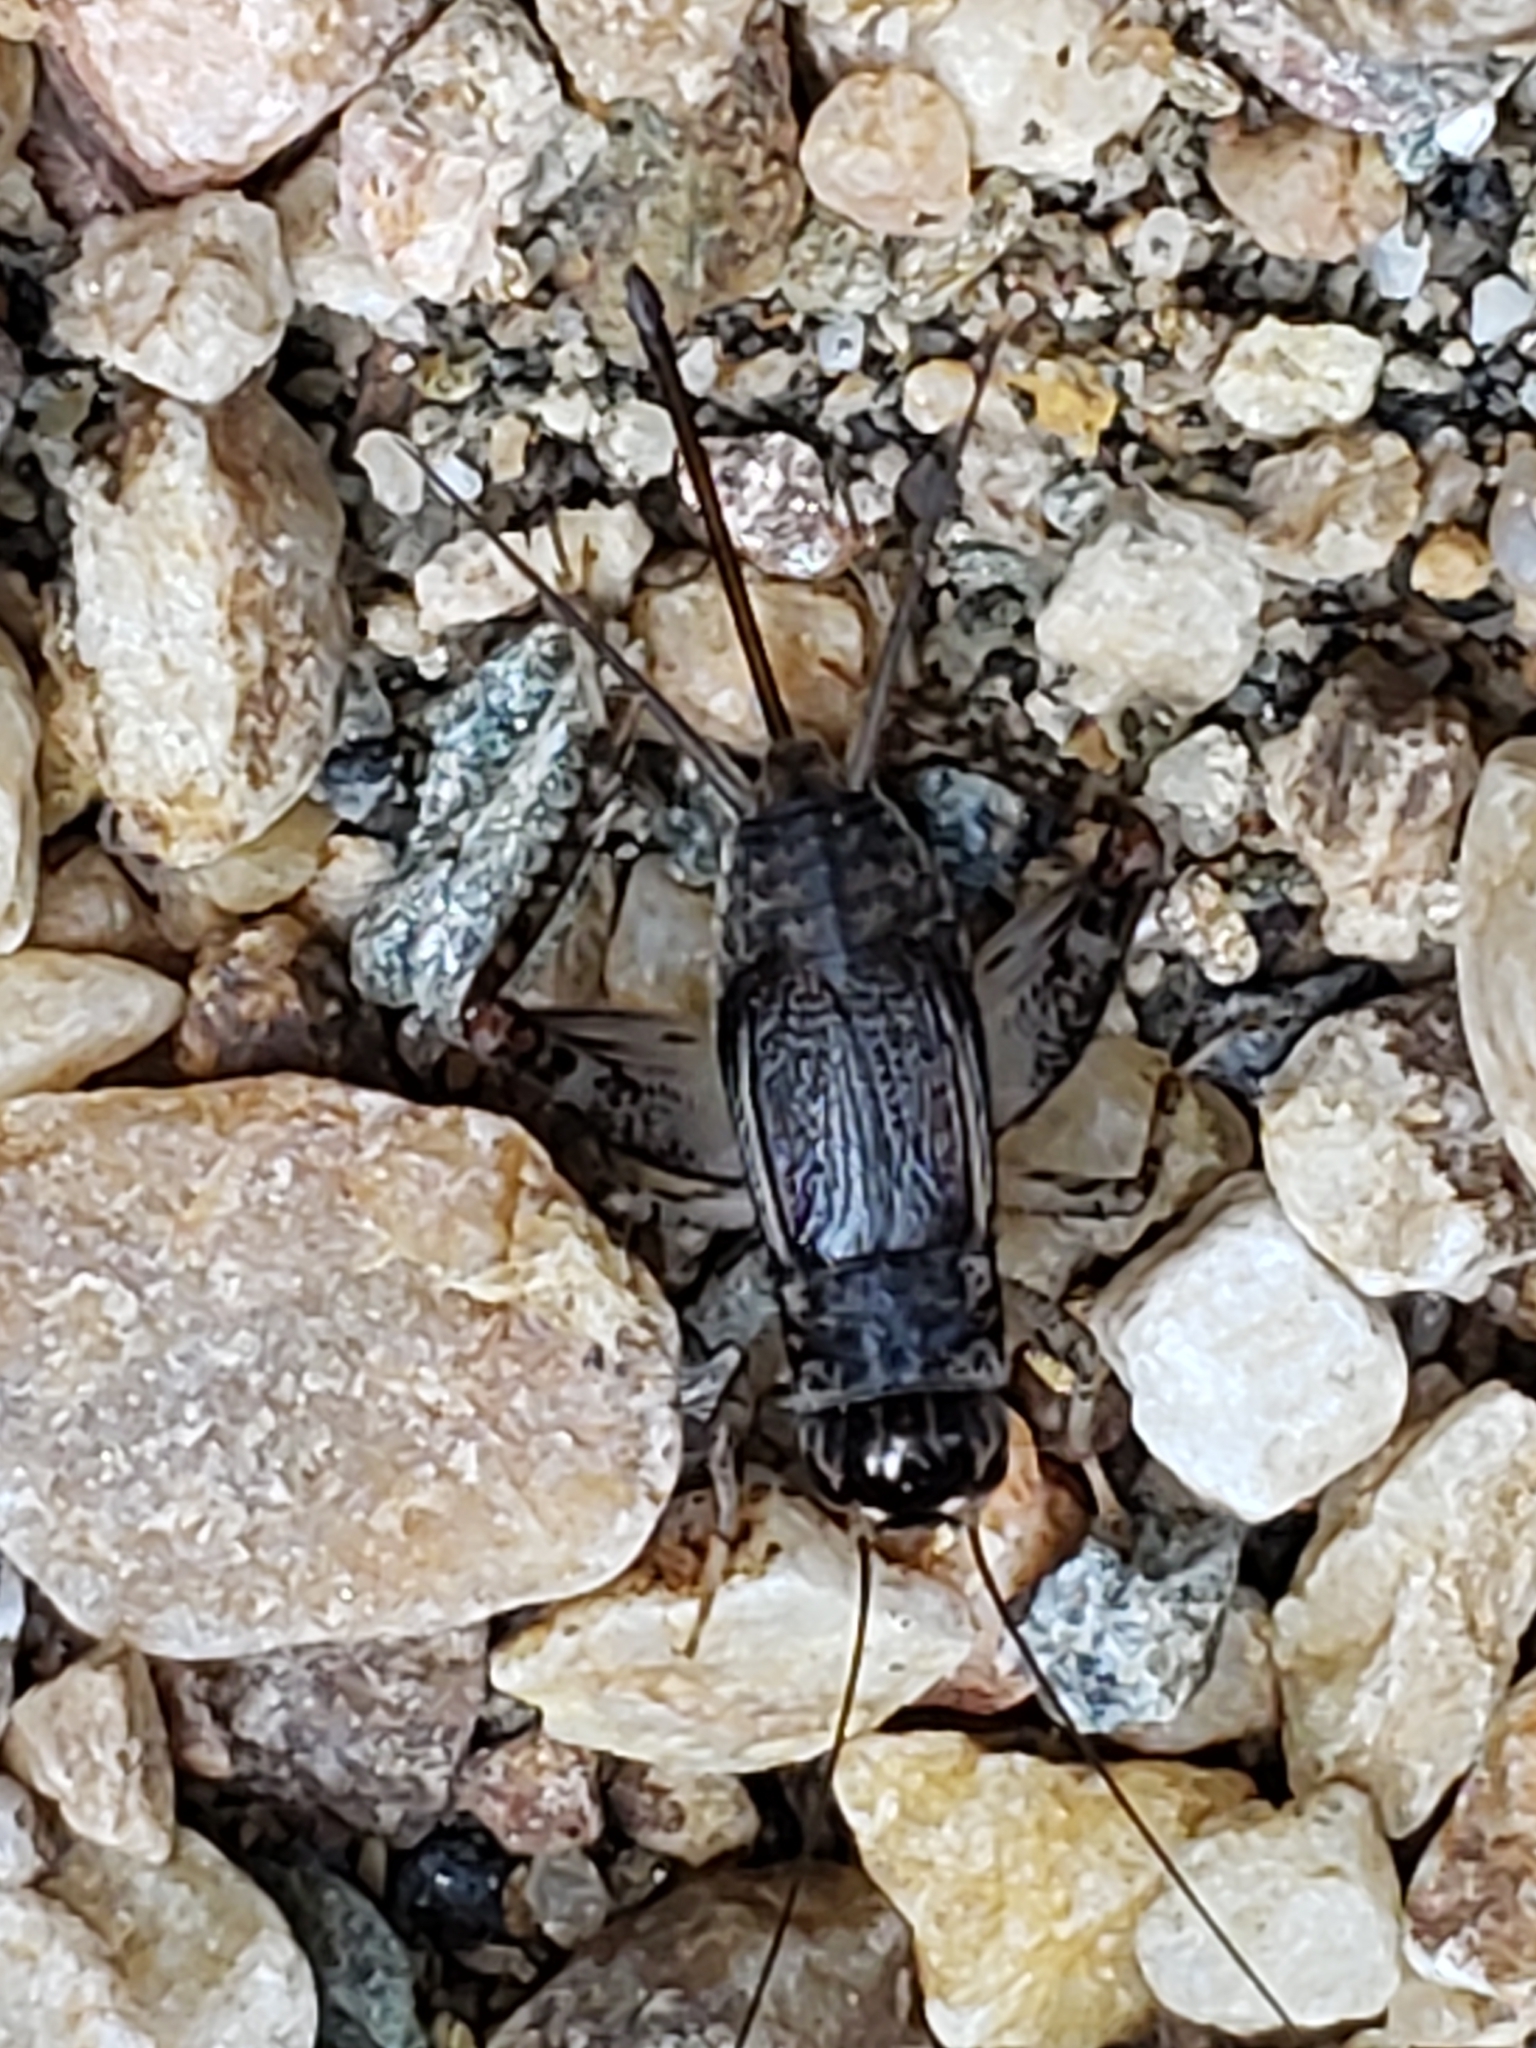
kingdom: Animalia
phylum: Arthropoda
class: Insecta
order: Orthoptera
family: Gryllidae
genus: Velarifictorus
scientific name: Velarifictorus micado
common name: Japanese burrowing cricket
